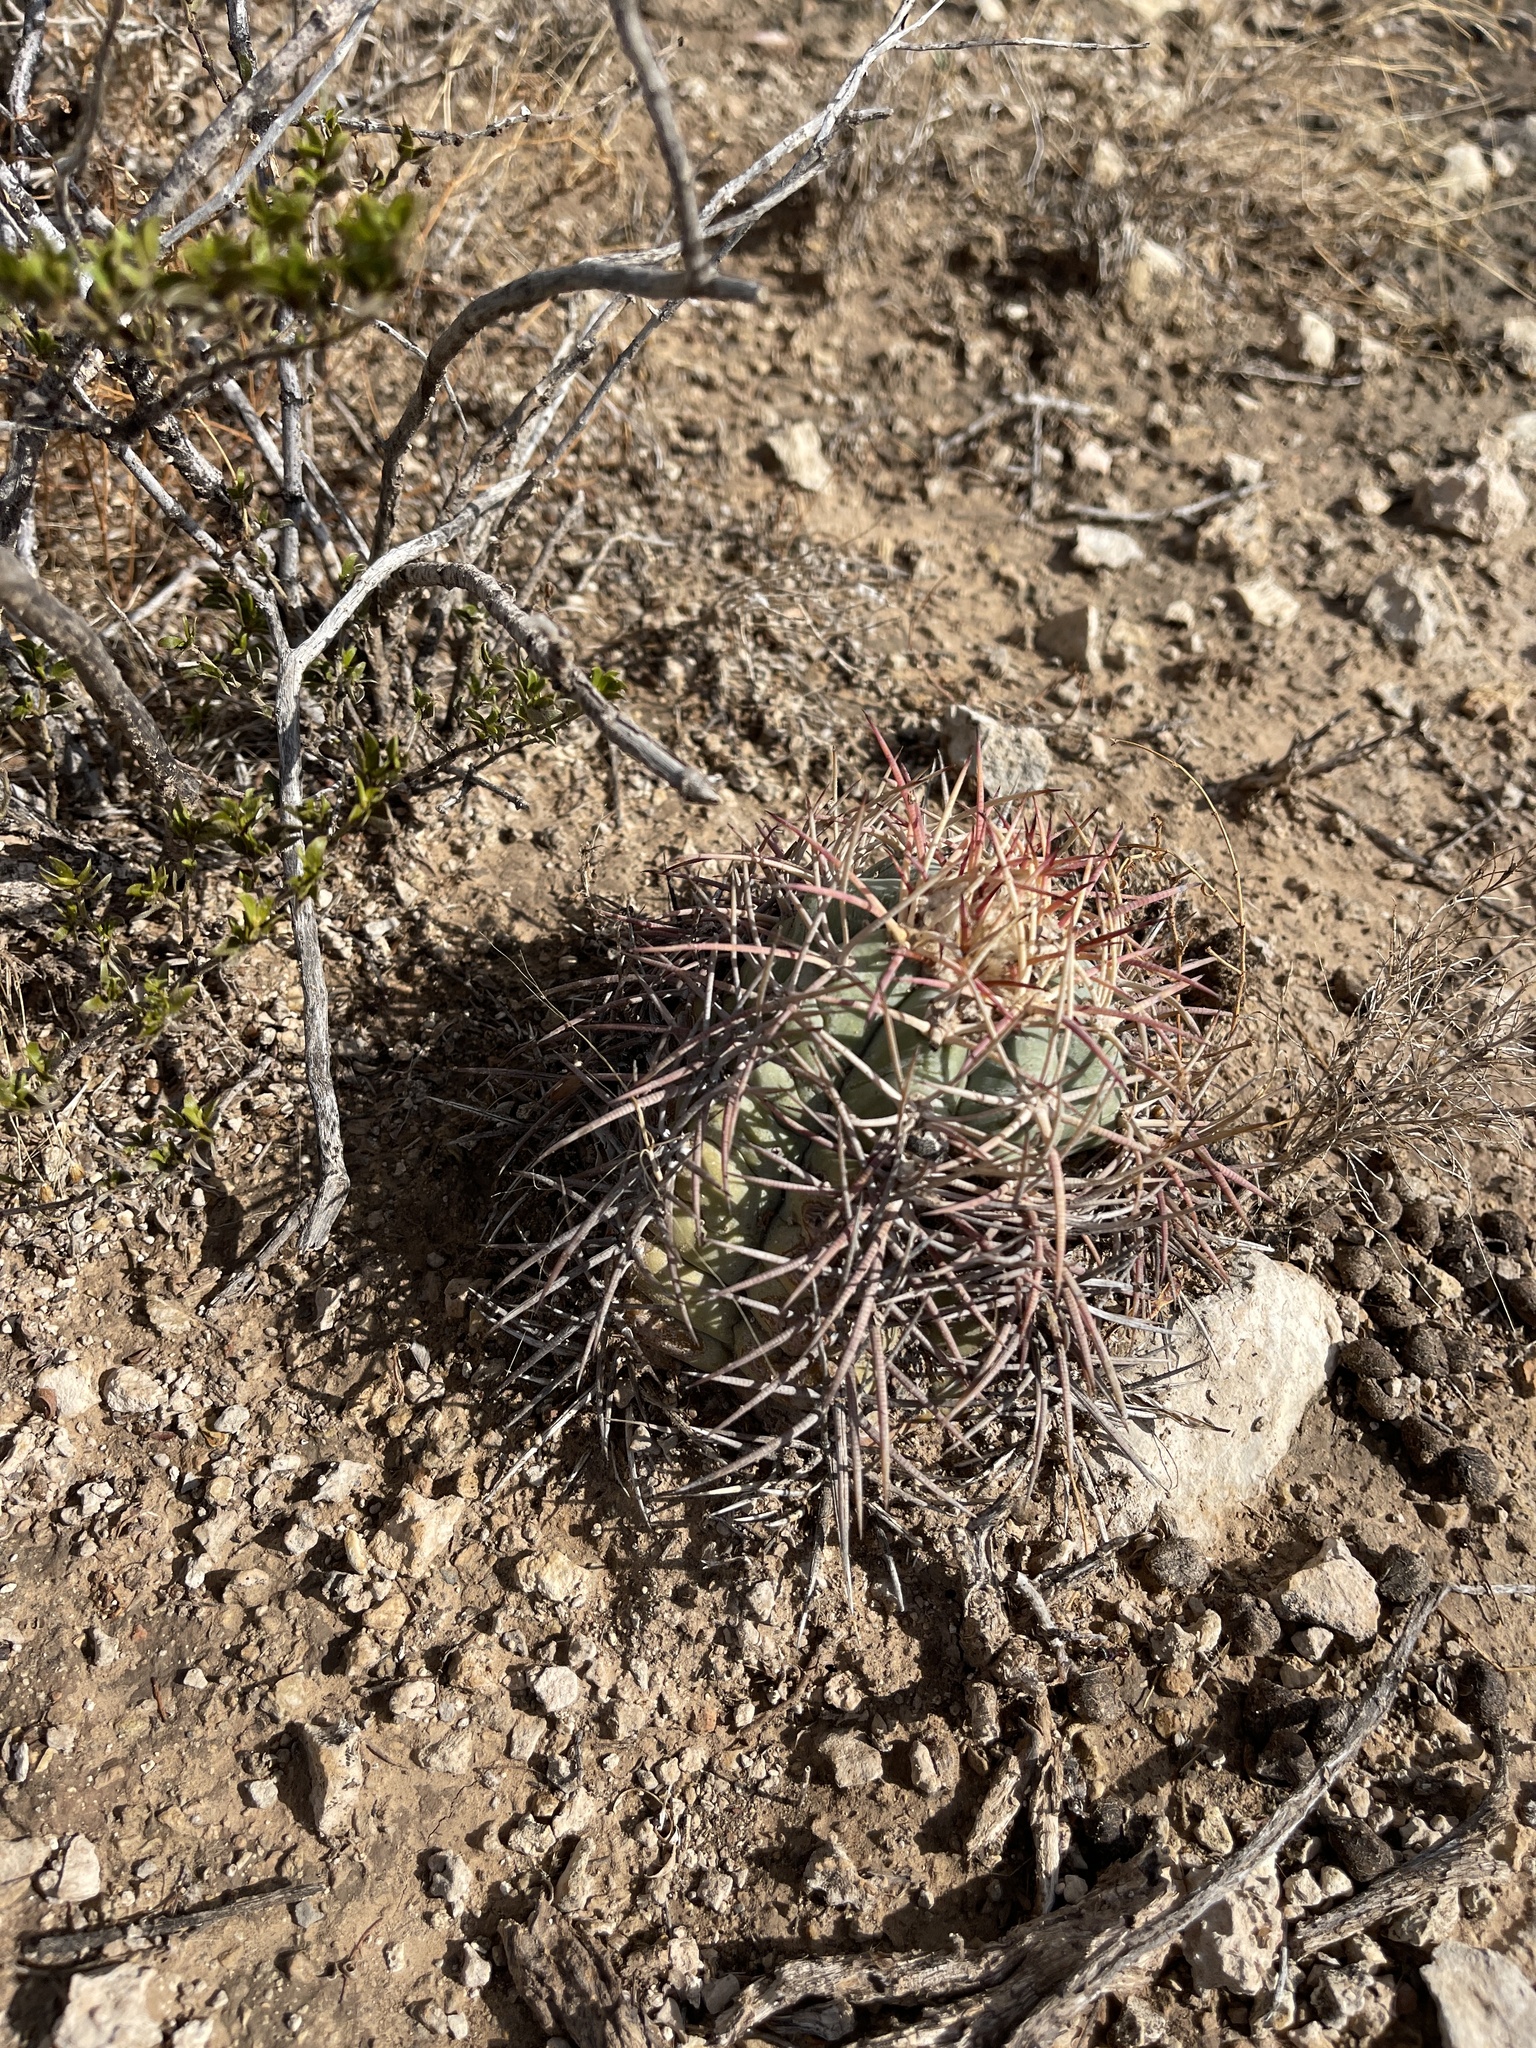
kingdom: Plantae
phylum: Tracheophyta
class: Magnoliopsida
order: Caryophyllales
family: Cactaceae
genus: Echinocactus
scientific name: Echinocactus horizonthalonius
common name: Devilshead
